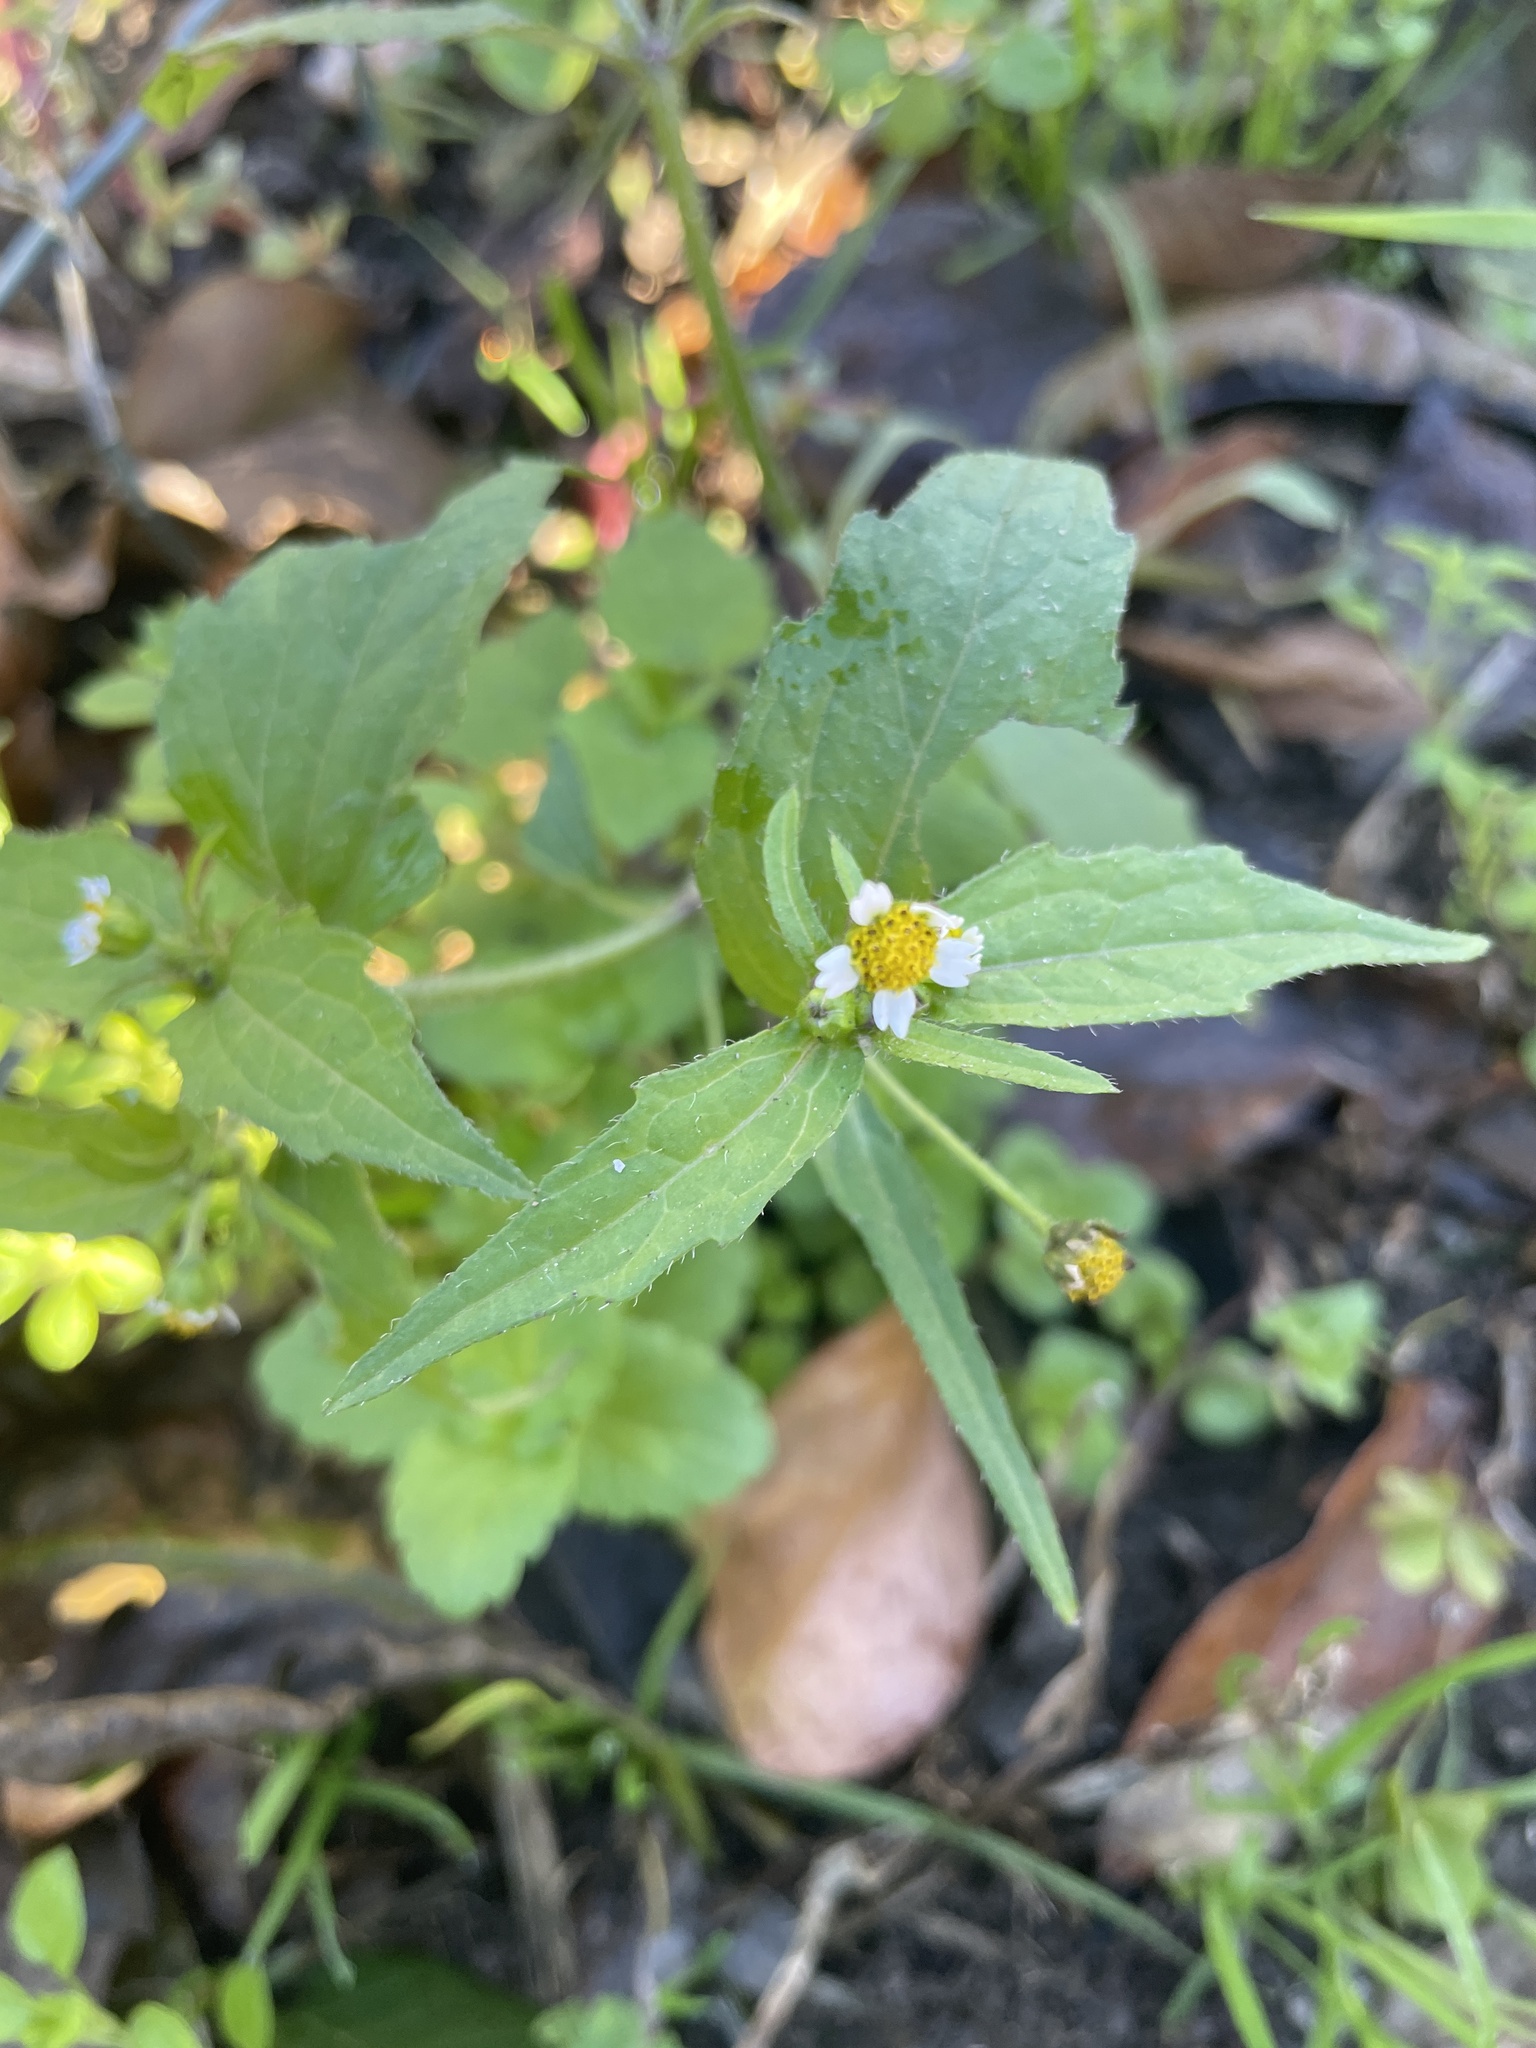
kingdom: Plantae
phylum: Tracheophyta
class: Magnoliopsida
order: Asterales
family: Asteraceae
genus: Galinsoga
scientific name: Galinsoga quadriradiata
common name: Shaggy soldier
